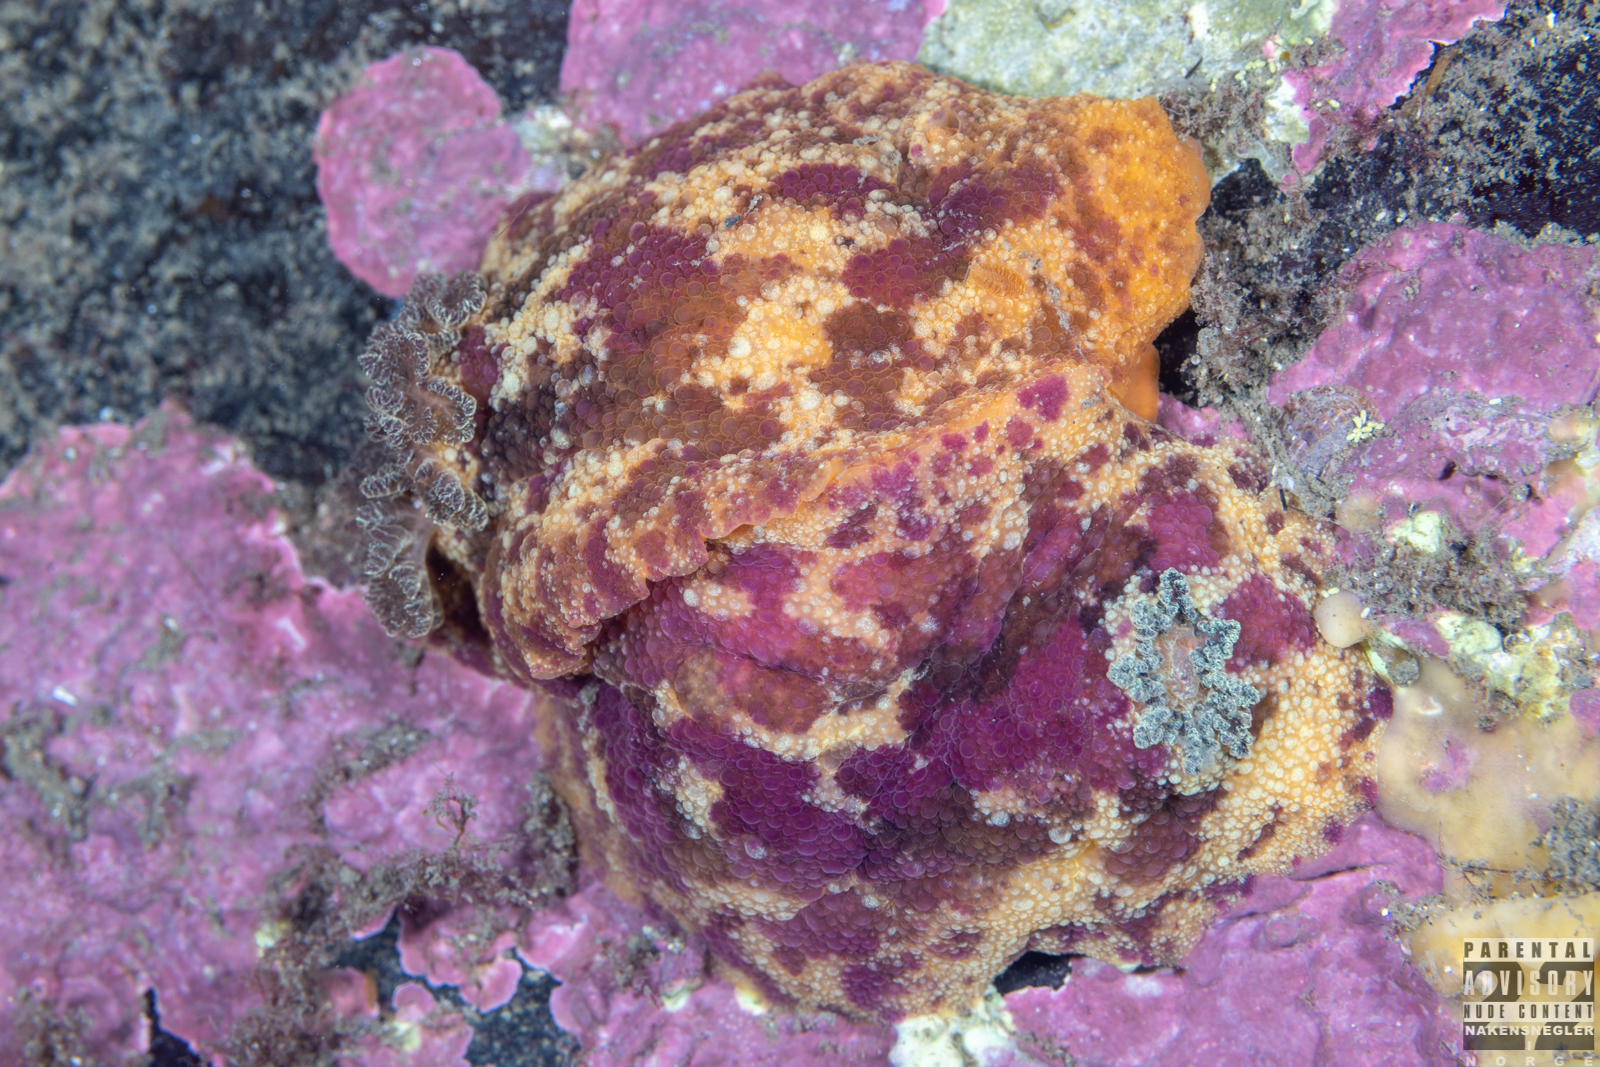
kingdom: Animalia
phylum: Mollusca
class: Gastropoda
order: Nudibranchia
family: Dorididae
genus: Doris
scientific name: Doris pseudoargus
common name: Sea lemon
